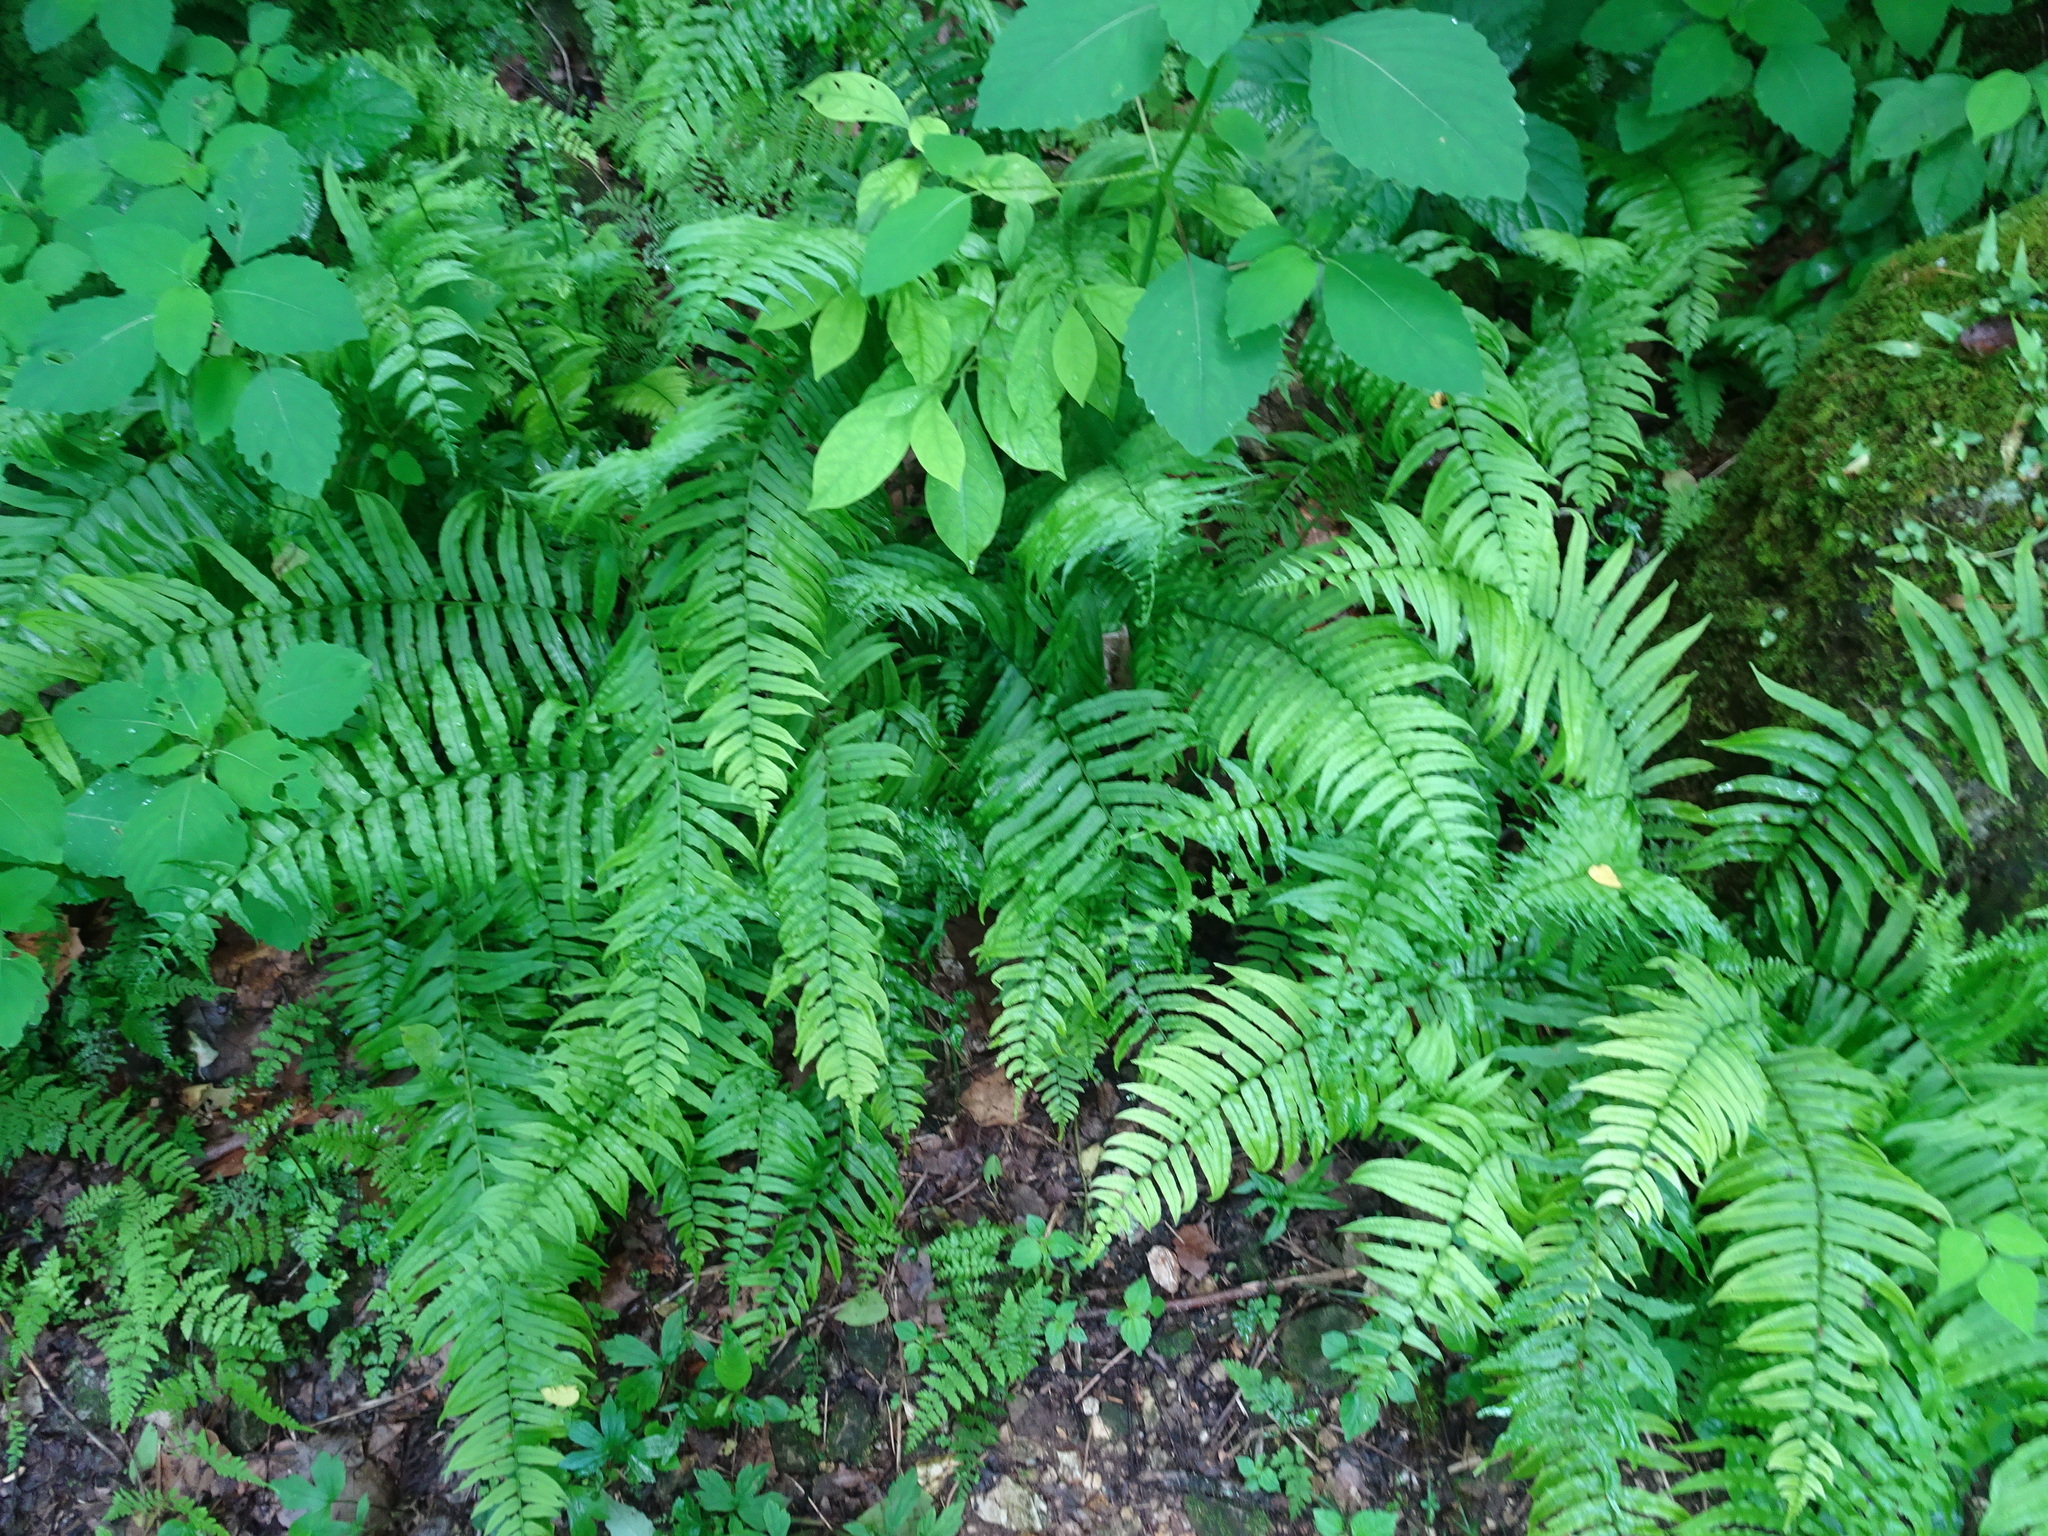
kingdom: Plantae
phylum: Tracheophyta
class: Polypodiopsida
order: Polypodiales
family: Diplaziopsidaceae
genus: Homalosorus
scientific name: Homalosorus pycnocarpos
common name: Glade fern
